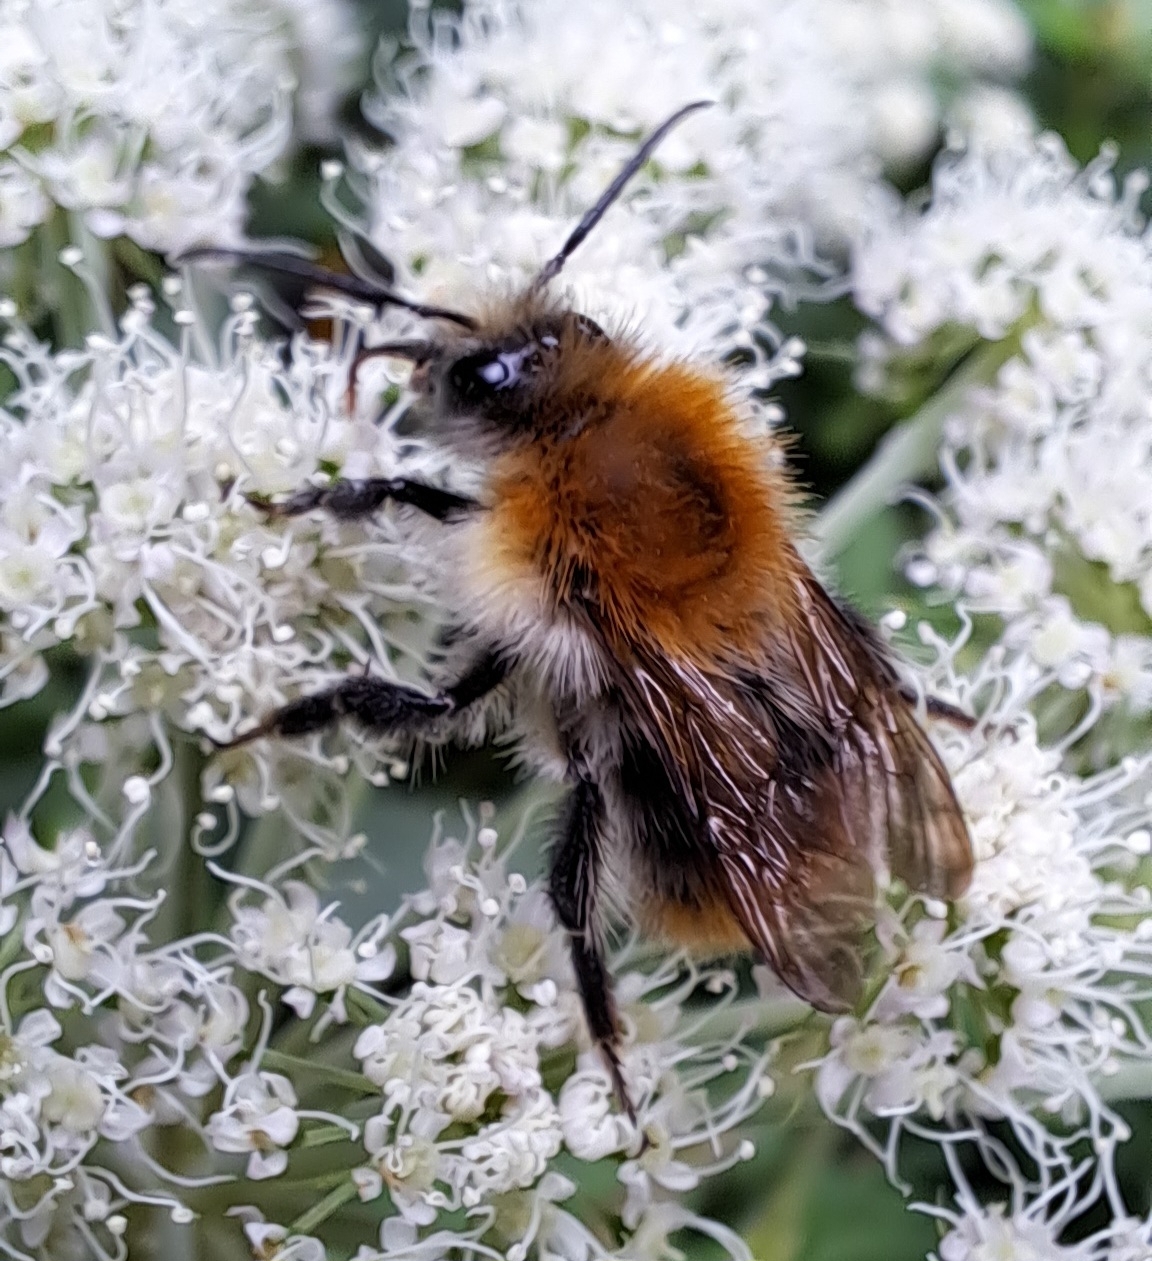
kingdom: Animalia
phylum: Arthropoda
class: Insecta
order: Hymenoptera
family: Apidae
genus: Bombus
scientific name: Bombus pascuorum
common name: Common carder bee
